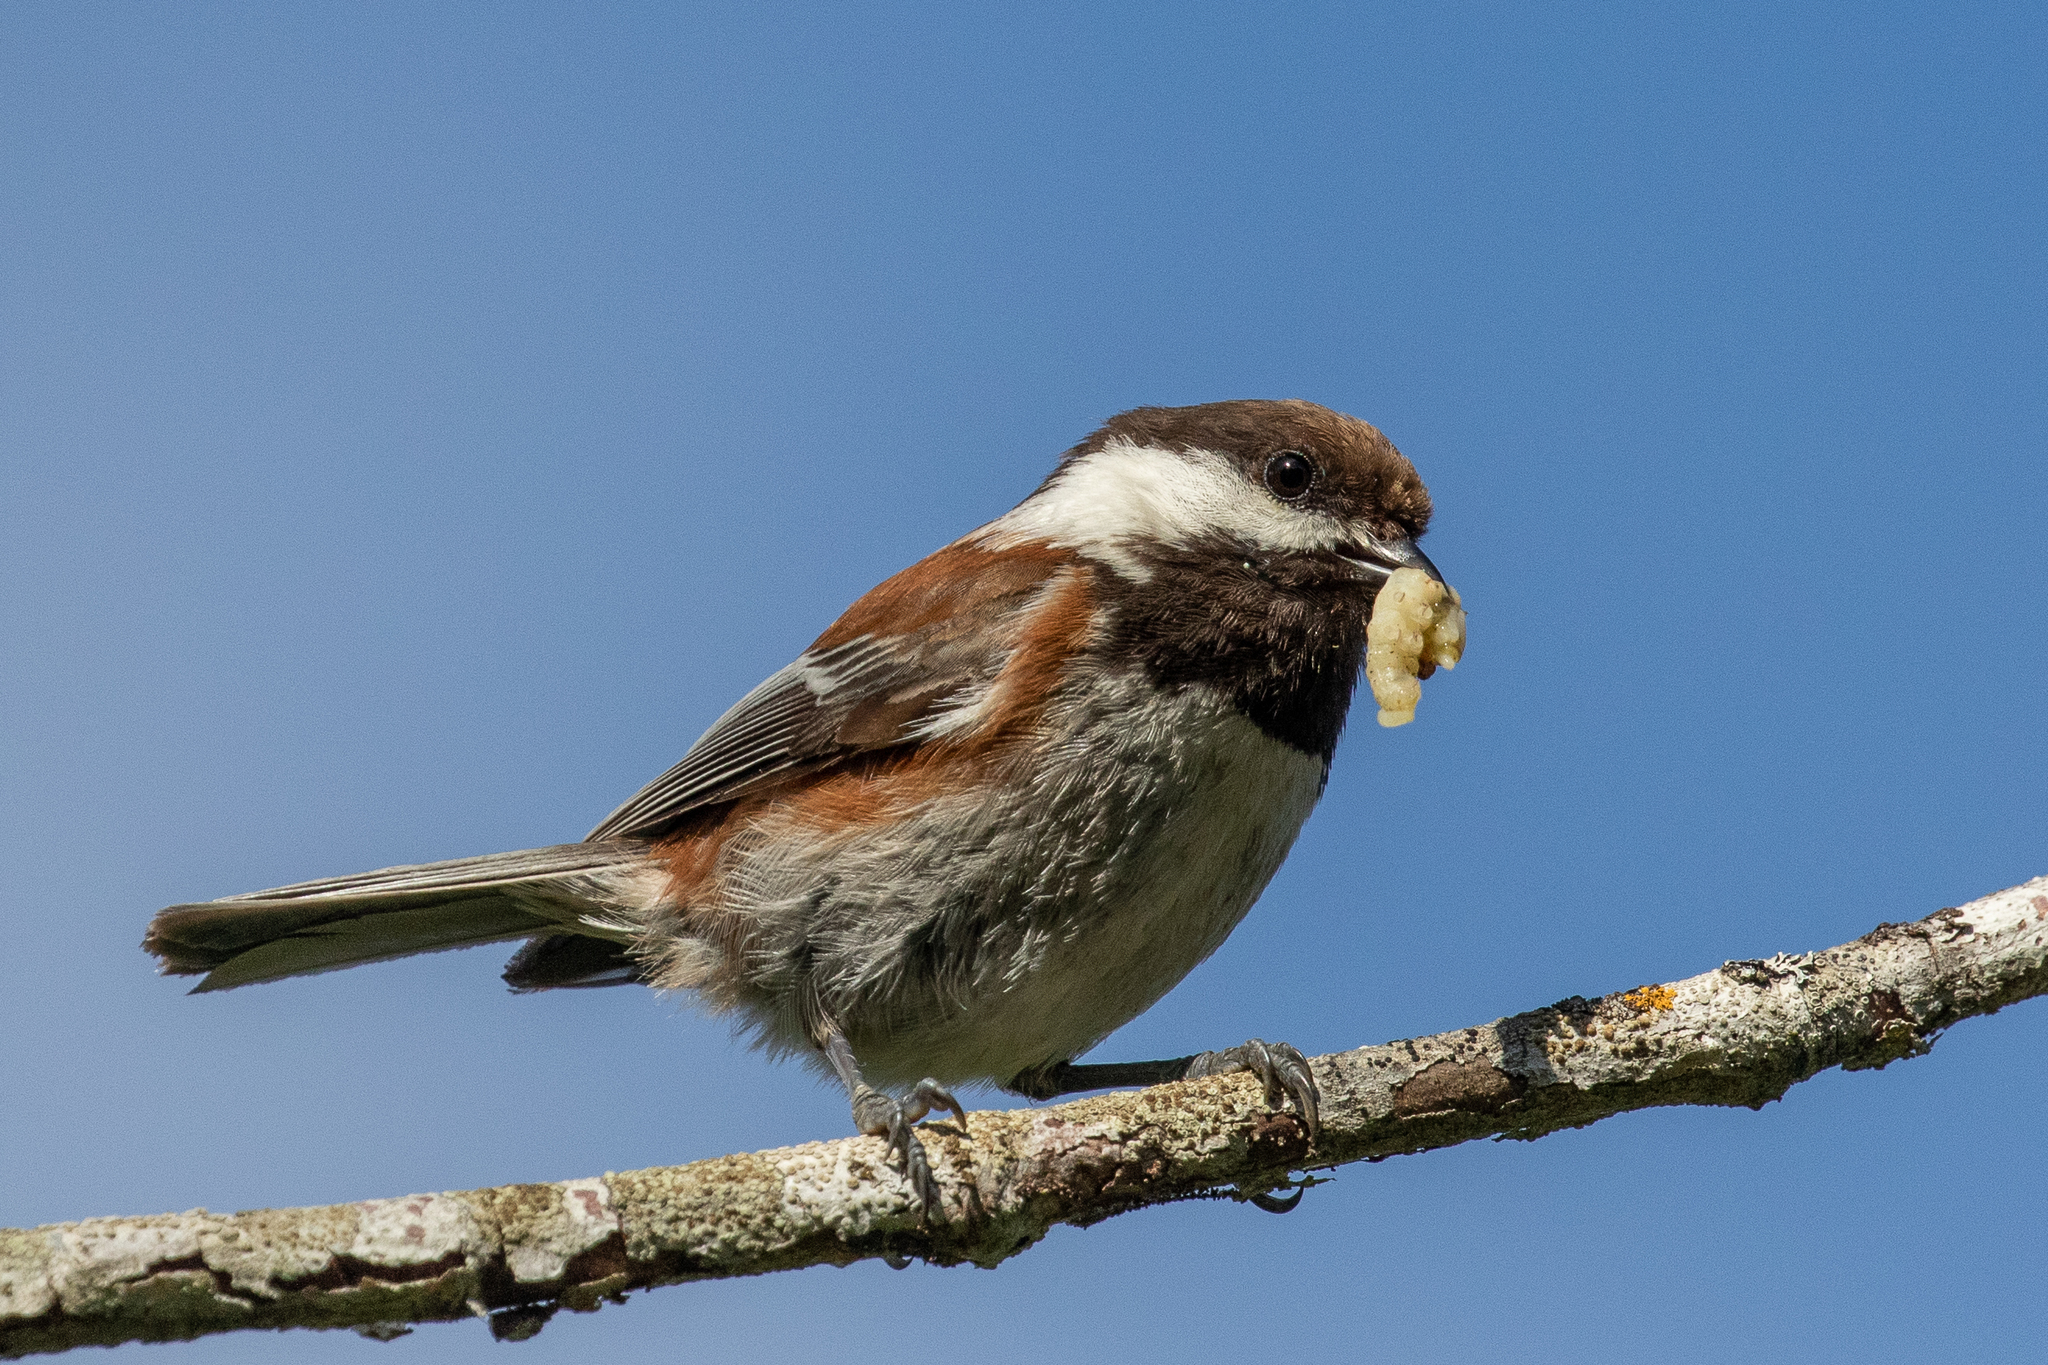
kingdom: Animalia
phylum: Chordata
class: Aves
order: Passeriformes
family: Paridae
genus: Poecile
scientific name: Poecile rufescens
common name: Chestnut-backed chickadee
